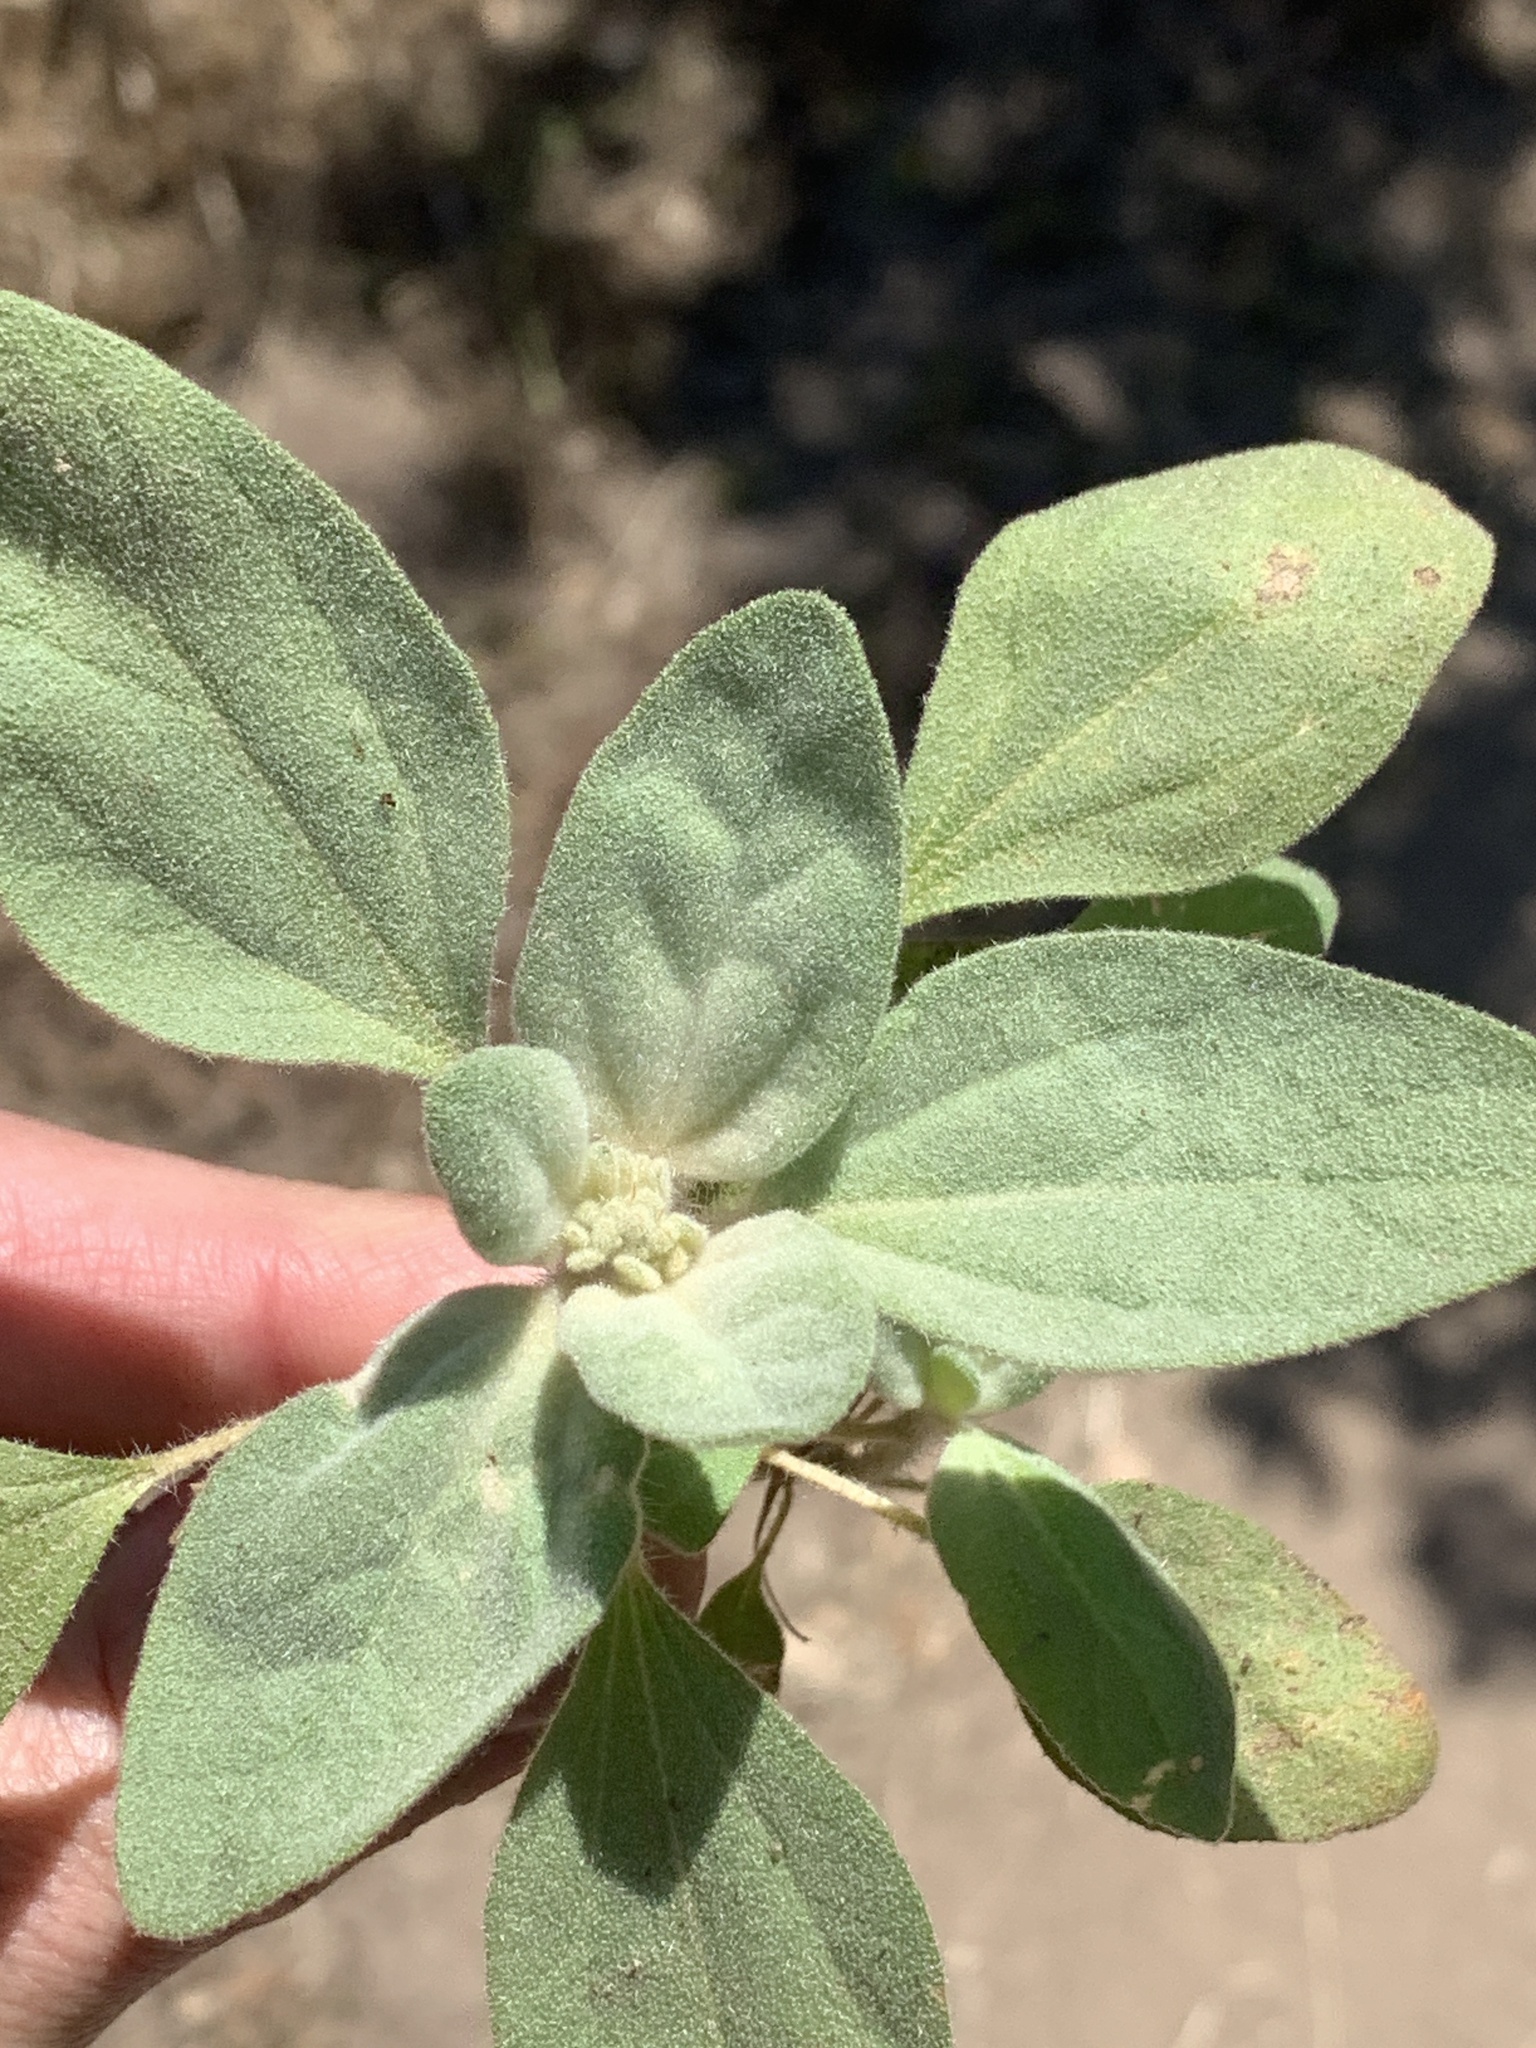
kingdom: Plantae
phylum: Tracheophyta
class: Magnoliopsida
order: Malpighiales
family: Euphorbiaceae
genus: Croton
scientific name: Croton setiger
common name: Dove weed
